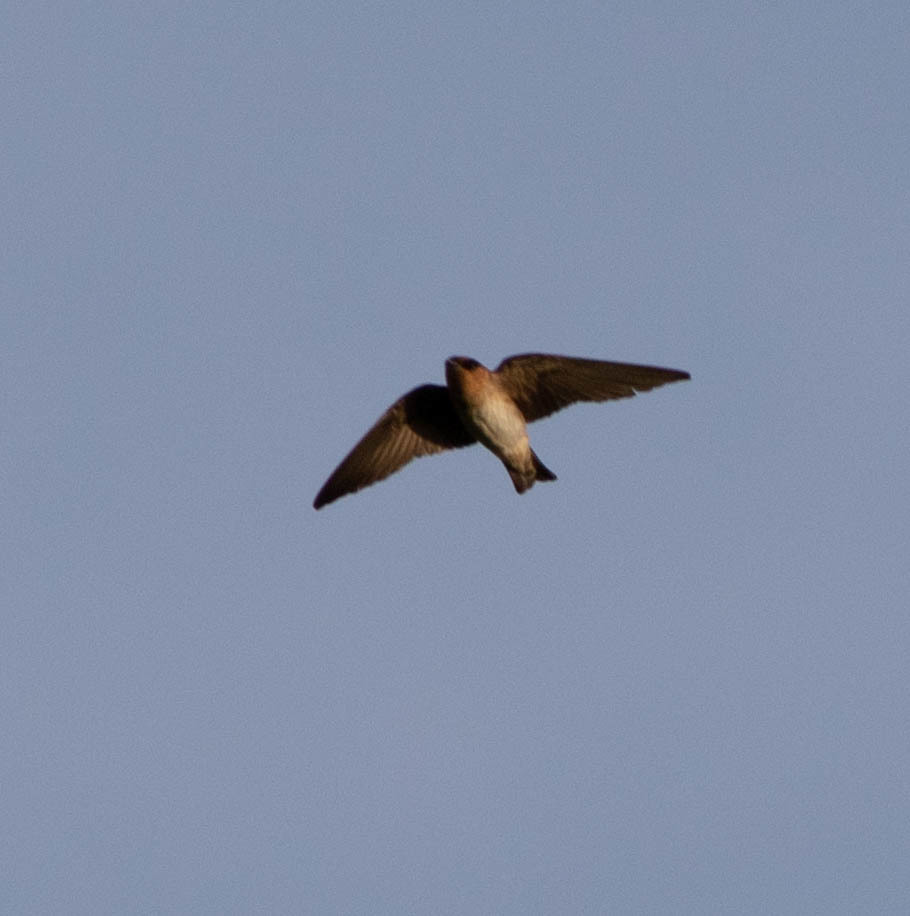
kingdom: Animalia
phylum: Chordata
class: Aves
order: Passeriformes
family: Hirundinidae
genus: Petrochelidon
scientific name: Petrochelidon pyrrhonota
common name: American cliff swallow
